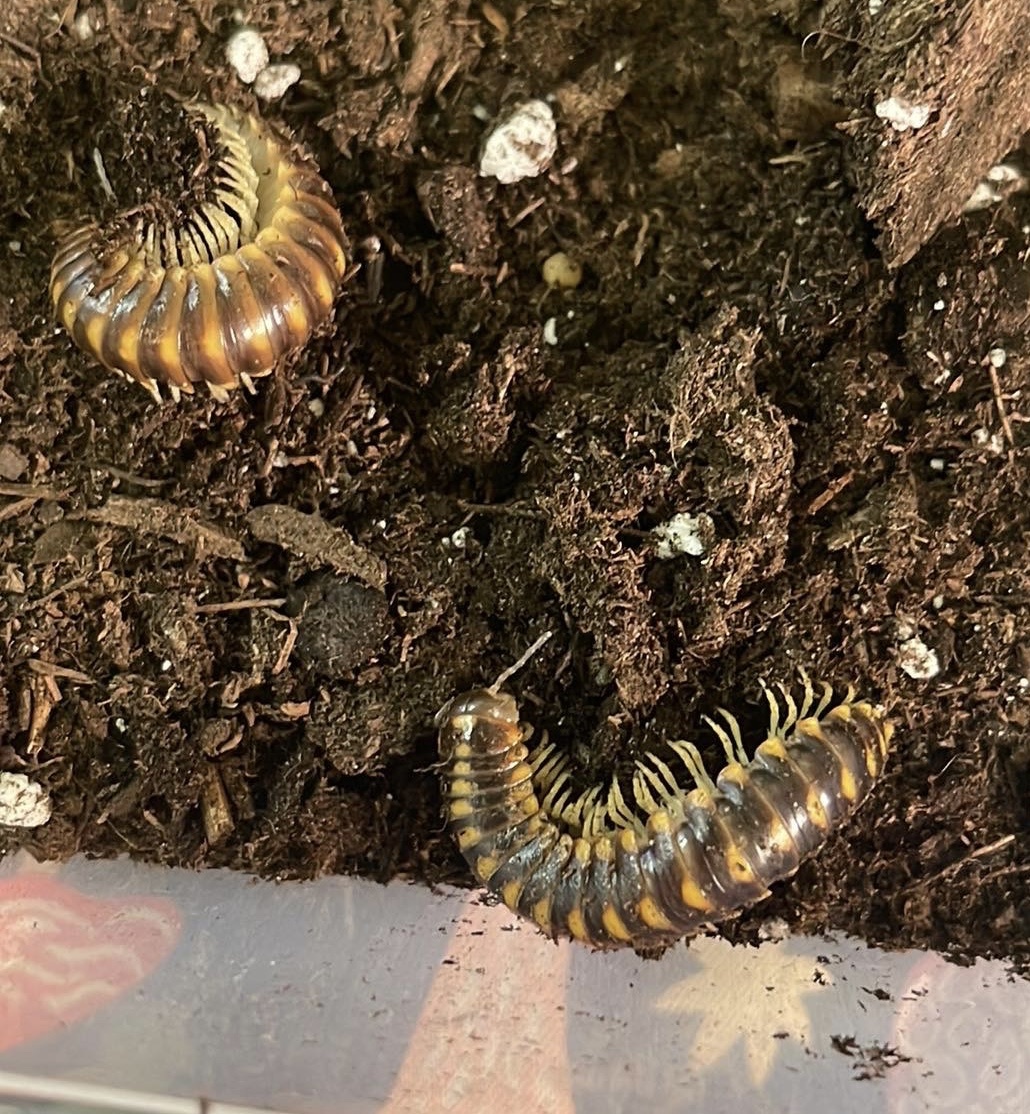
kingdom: Animalia
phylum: Arthropoda
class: Diplopoda
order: Polydesmida
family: Xystodesmidae
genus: Rudiloria
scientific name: Rudiloria trimaculata
